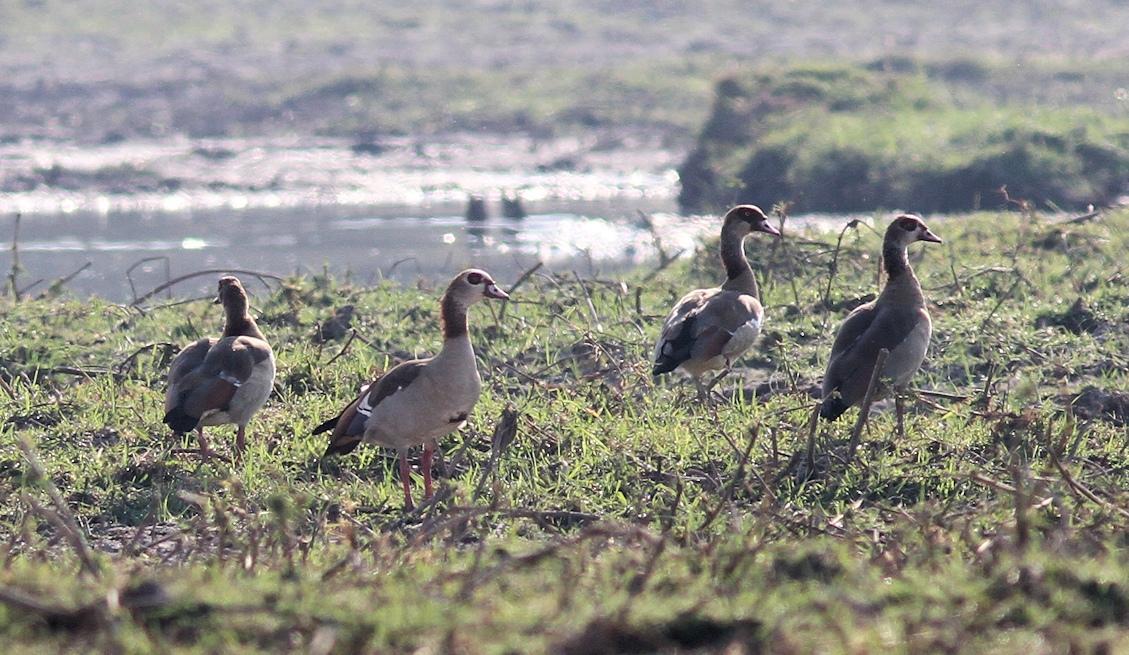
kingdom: Animalia
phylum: Chordata
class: Aves
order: Anseriformes
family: Anatidae
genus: Alopochen
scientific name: Alopochen aegyptiaca
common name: Egyptian goose
